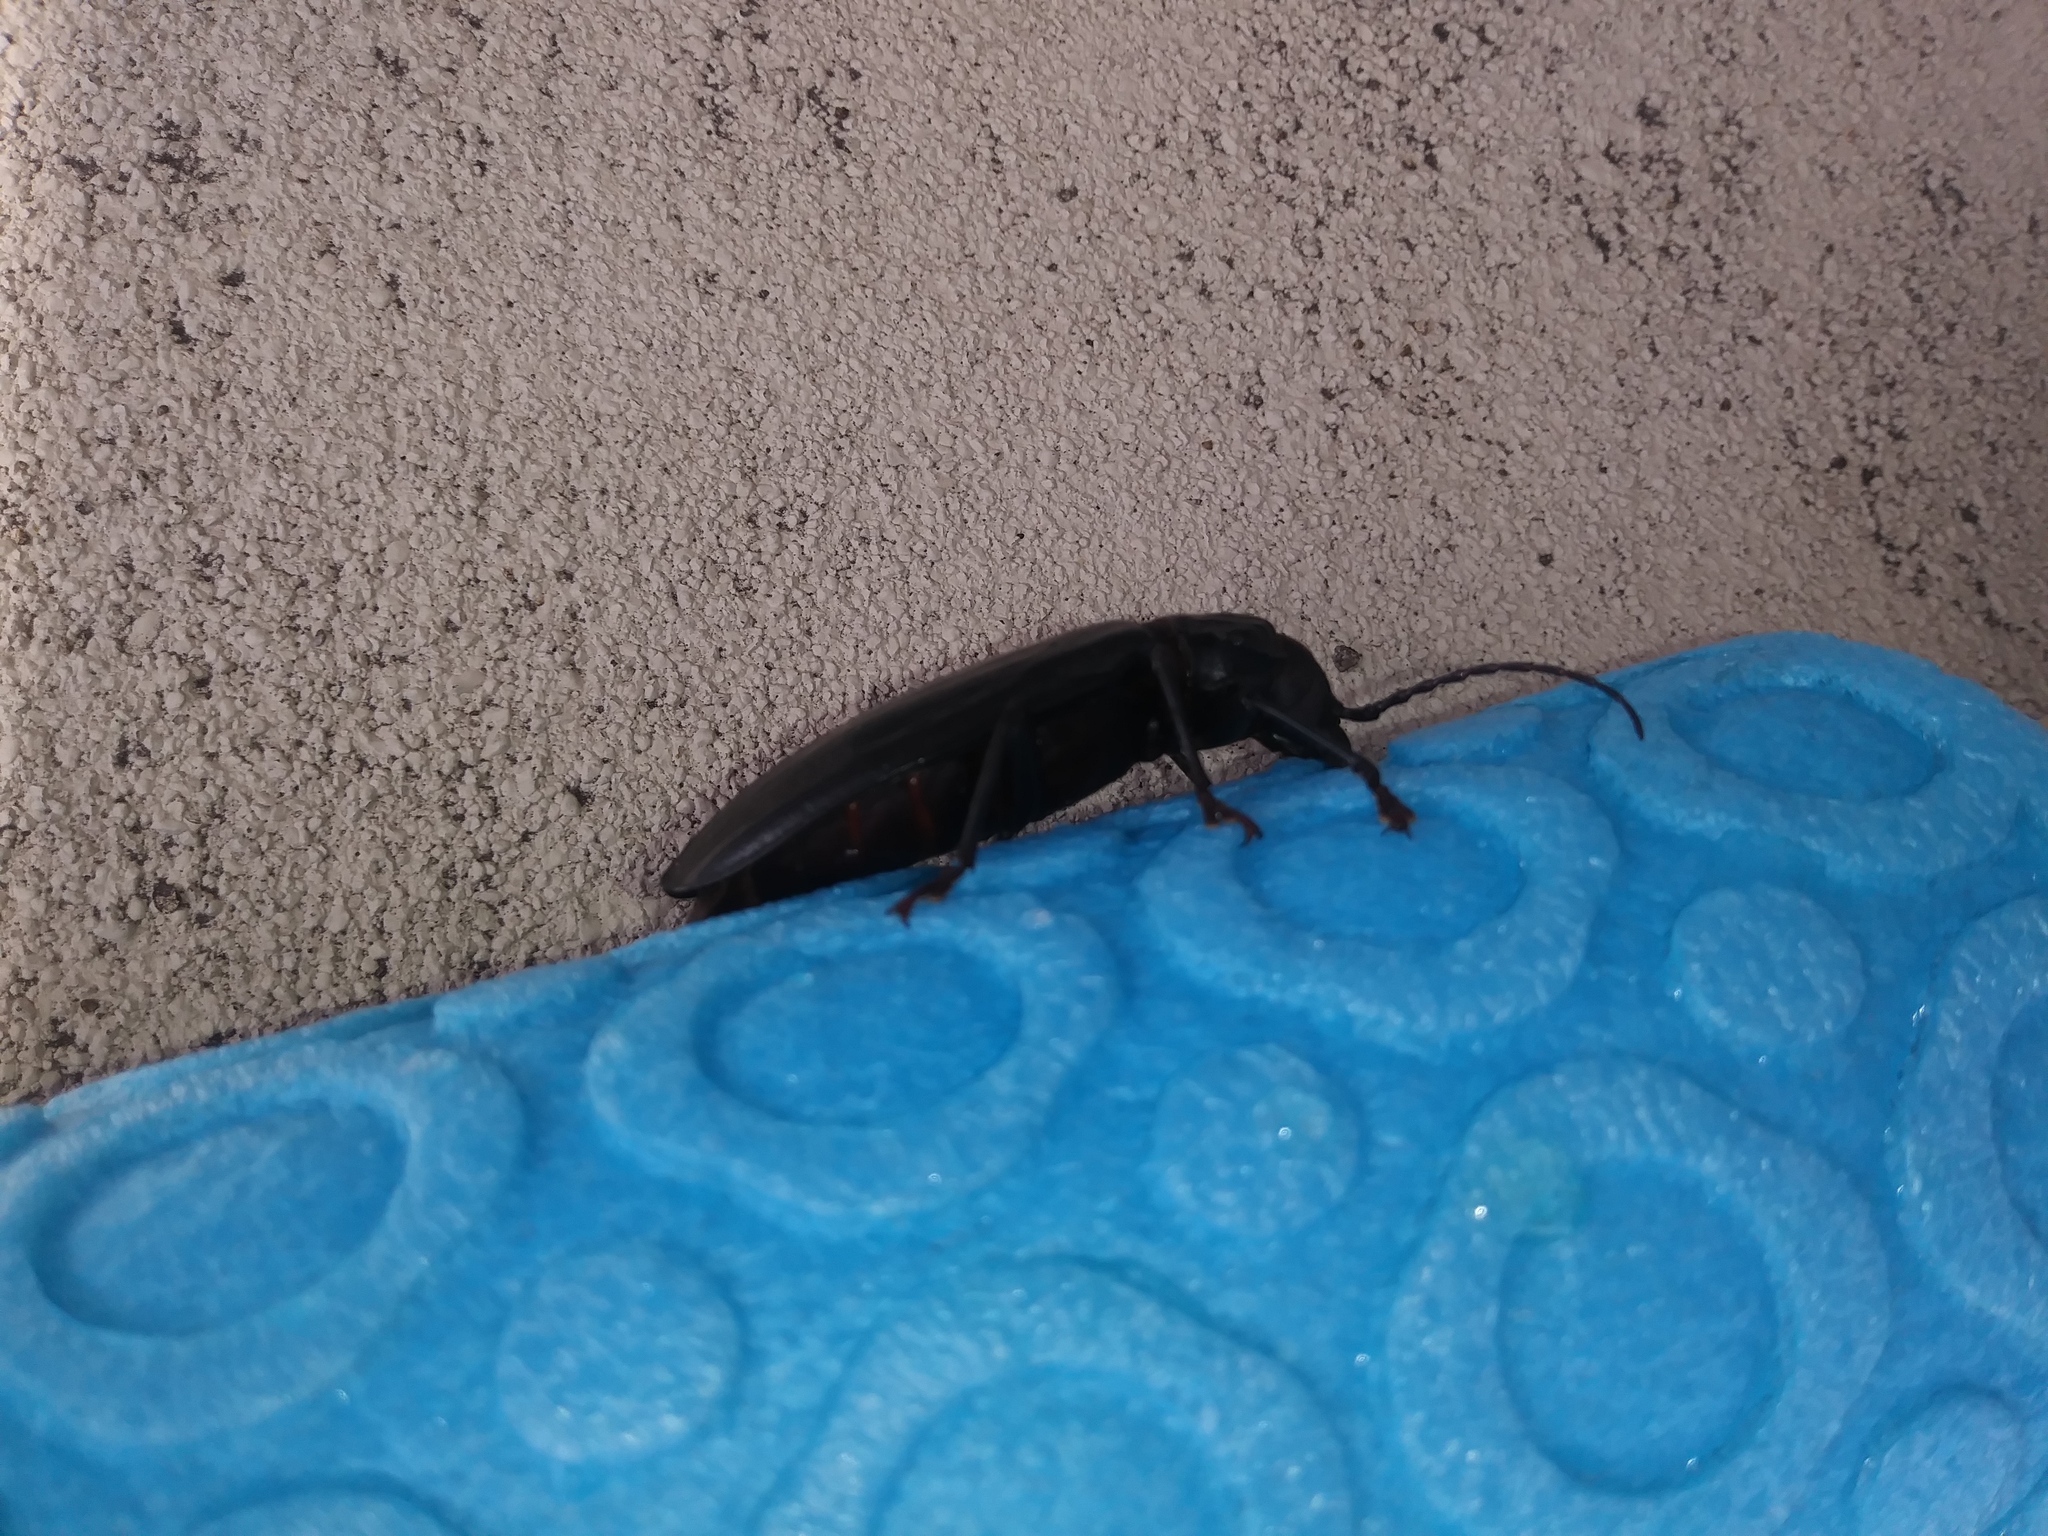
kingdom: Animalia
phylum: Arthropoda
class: Insecta
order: Coleoptera
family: Cerambycidae
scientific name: Cerambycidae
